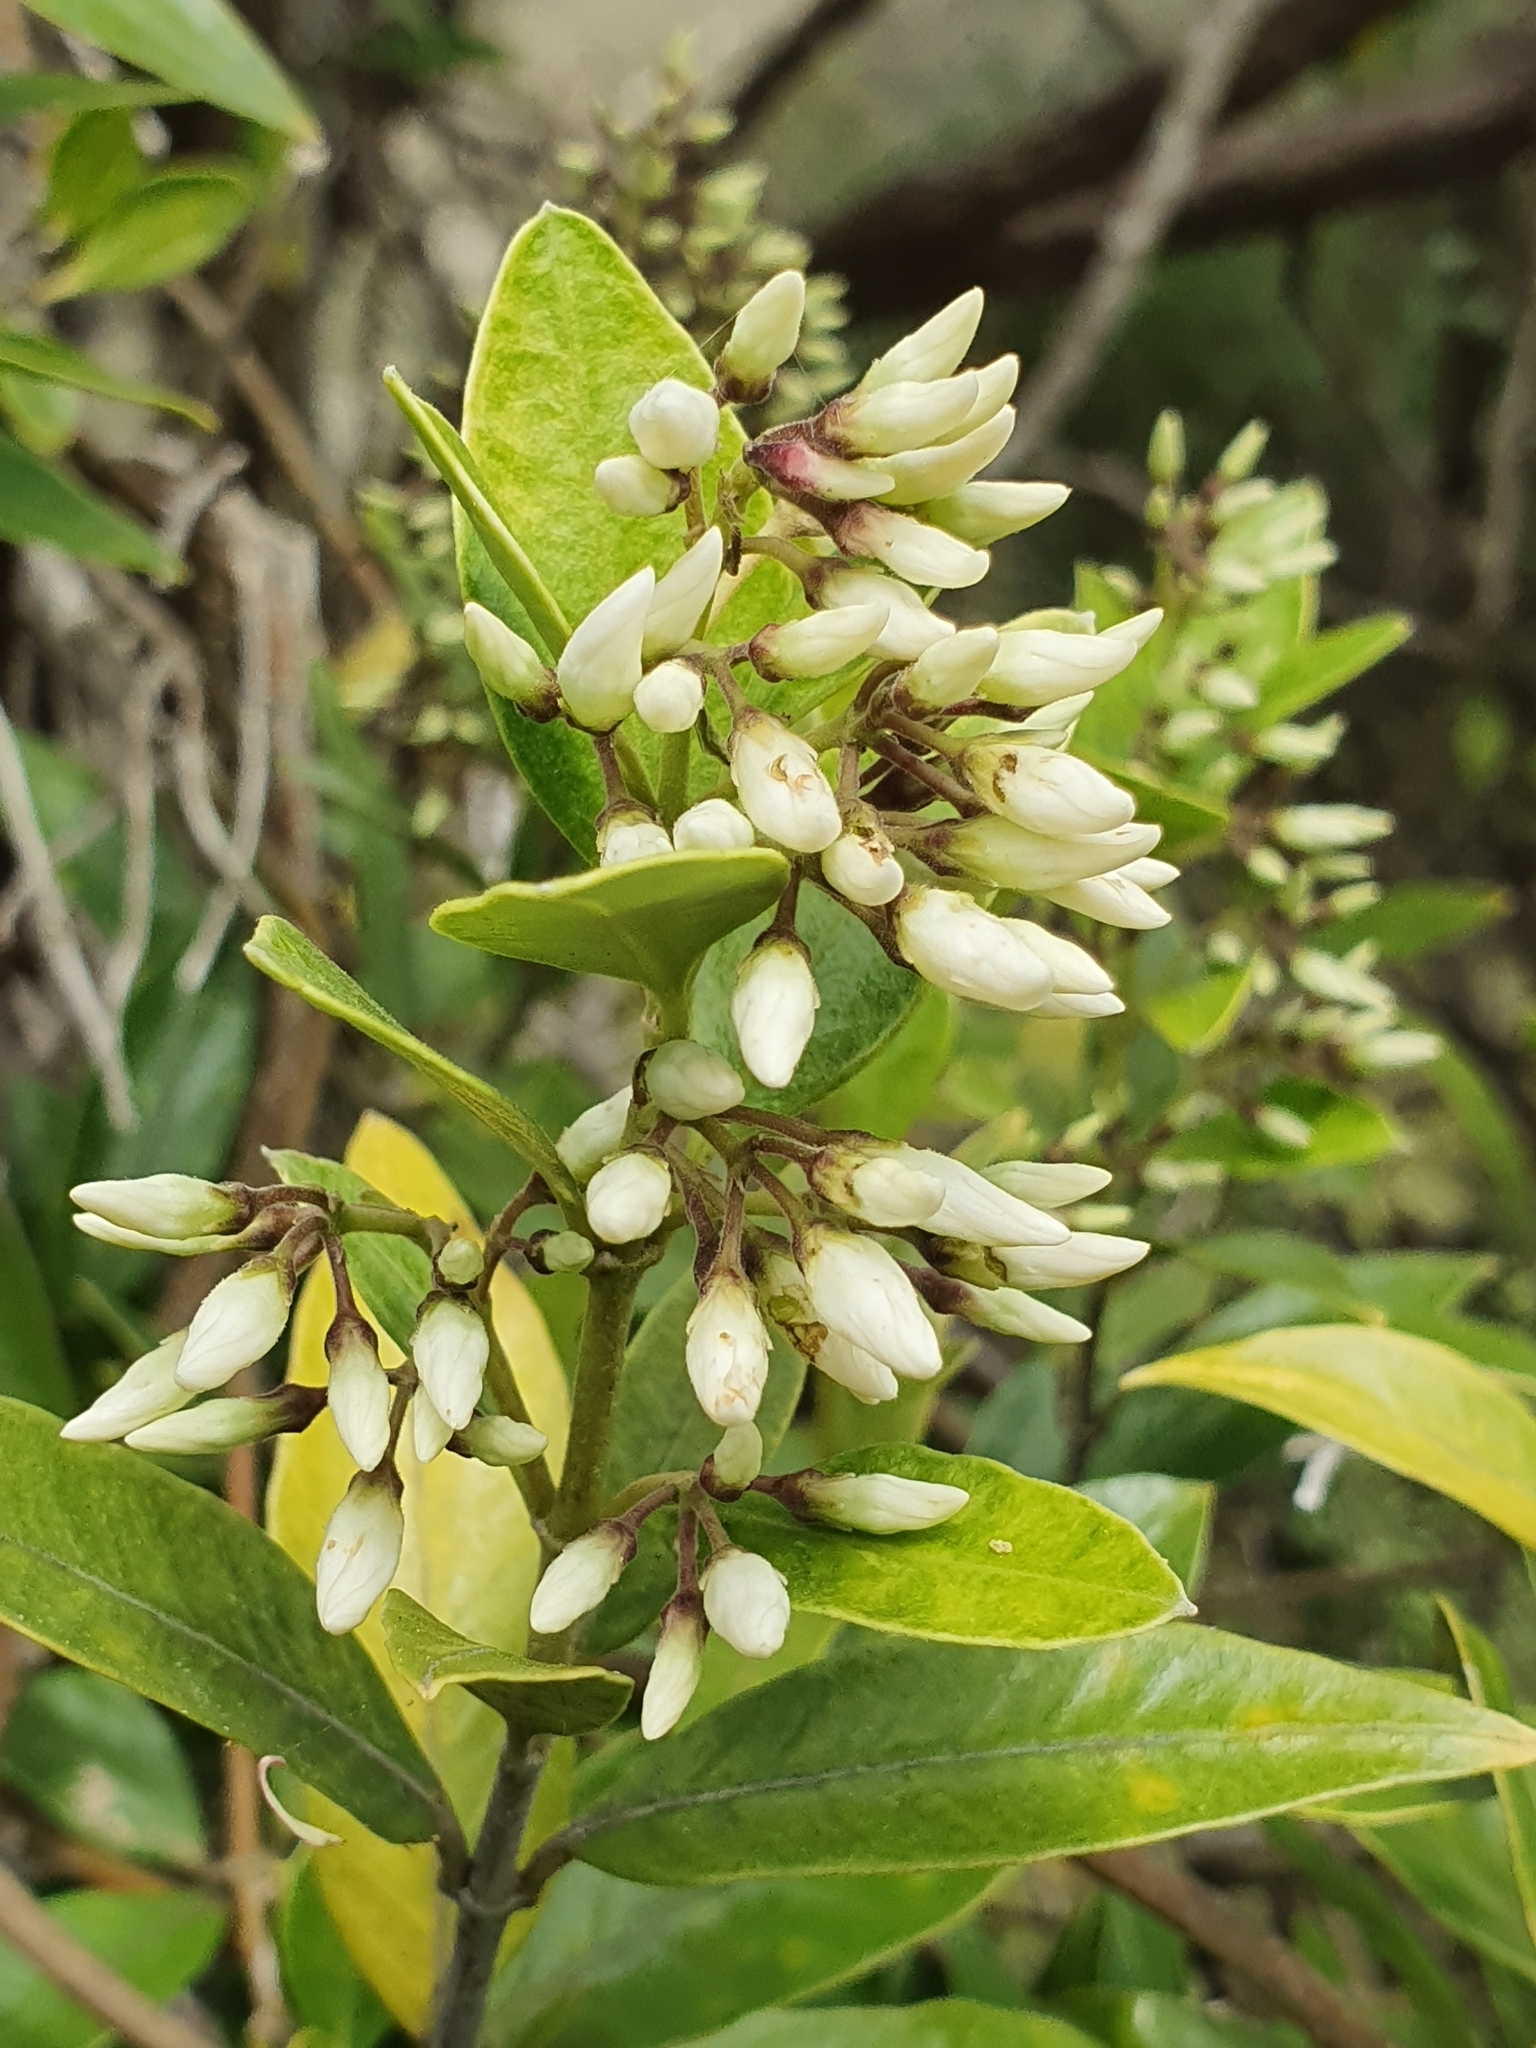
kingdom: Plantae
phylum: Tracheophyta
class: Magnoliopsida
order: Gentianales
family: Apocynaceae
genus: Parsonsia
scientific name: Parsonsia heterophylla
